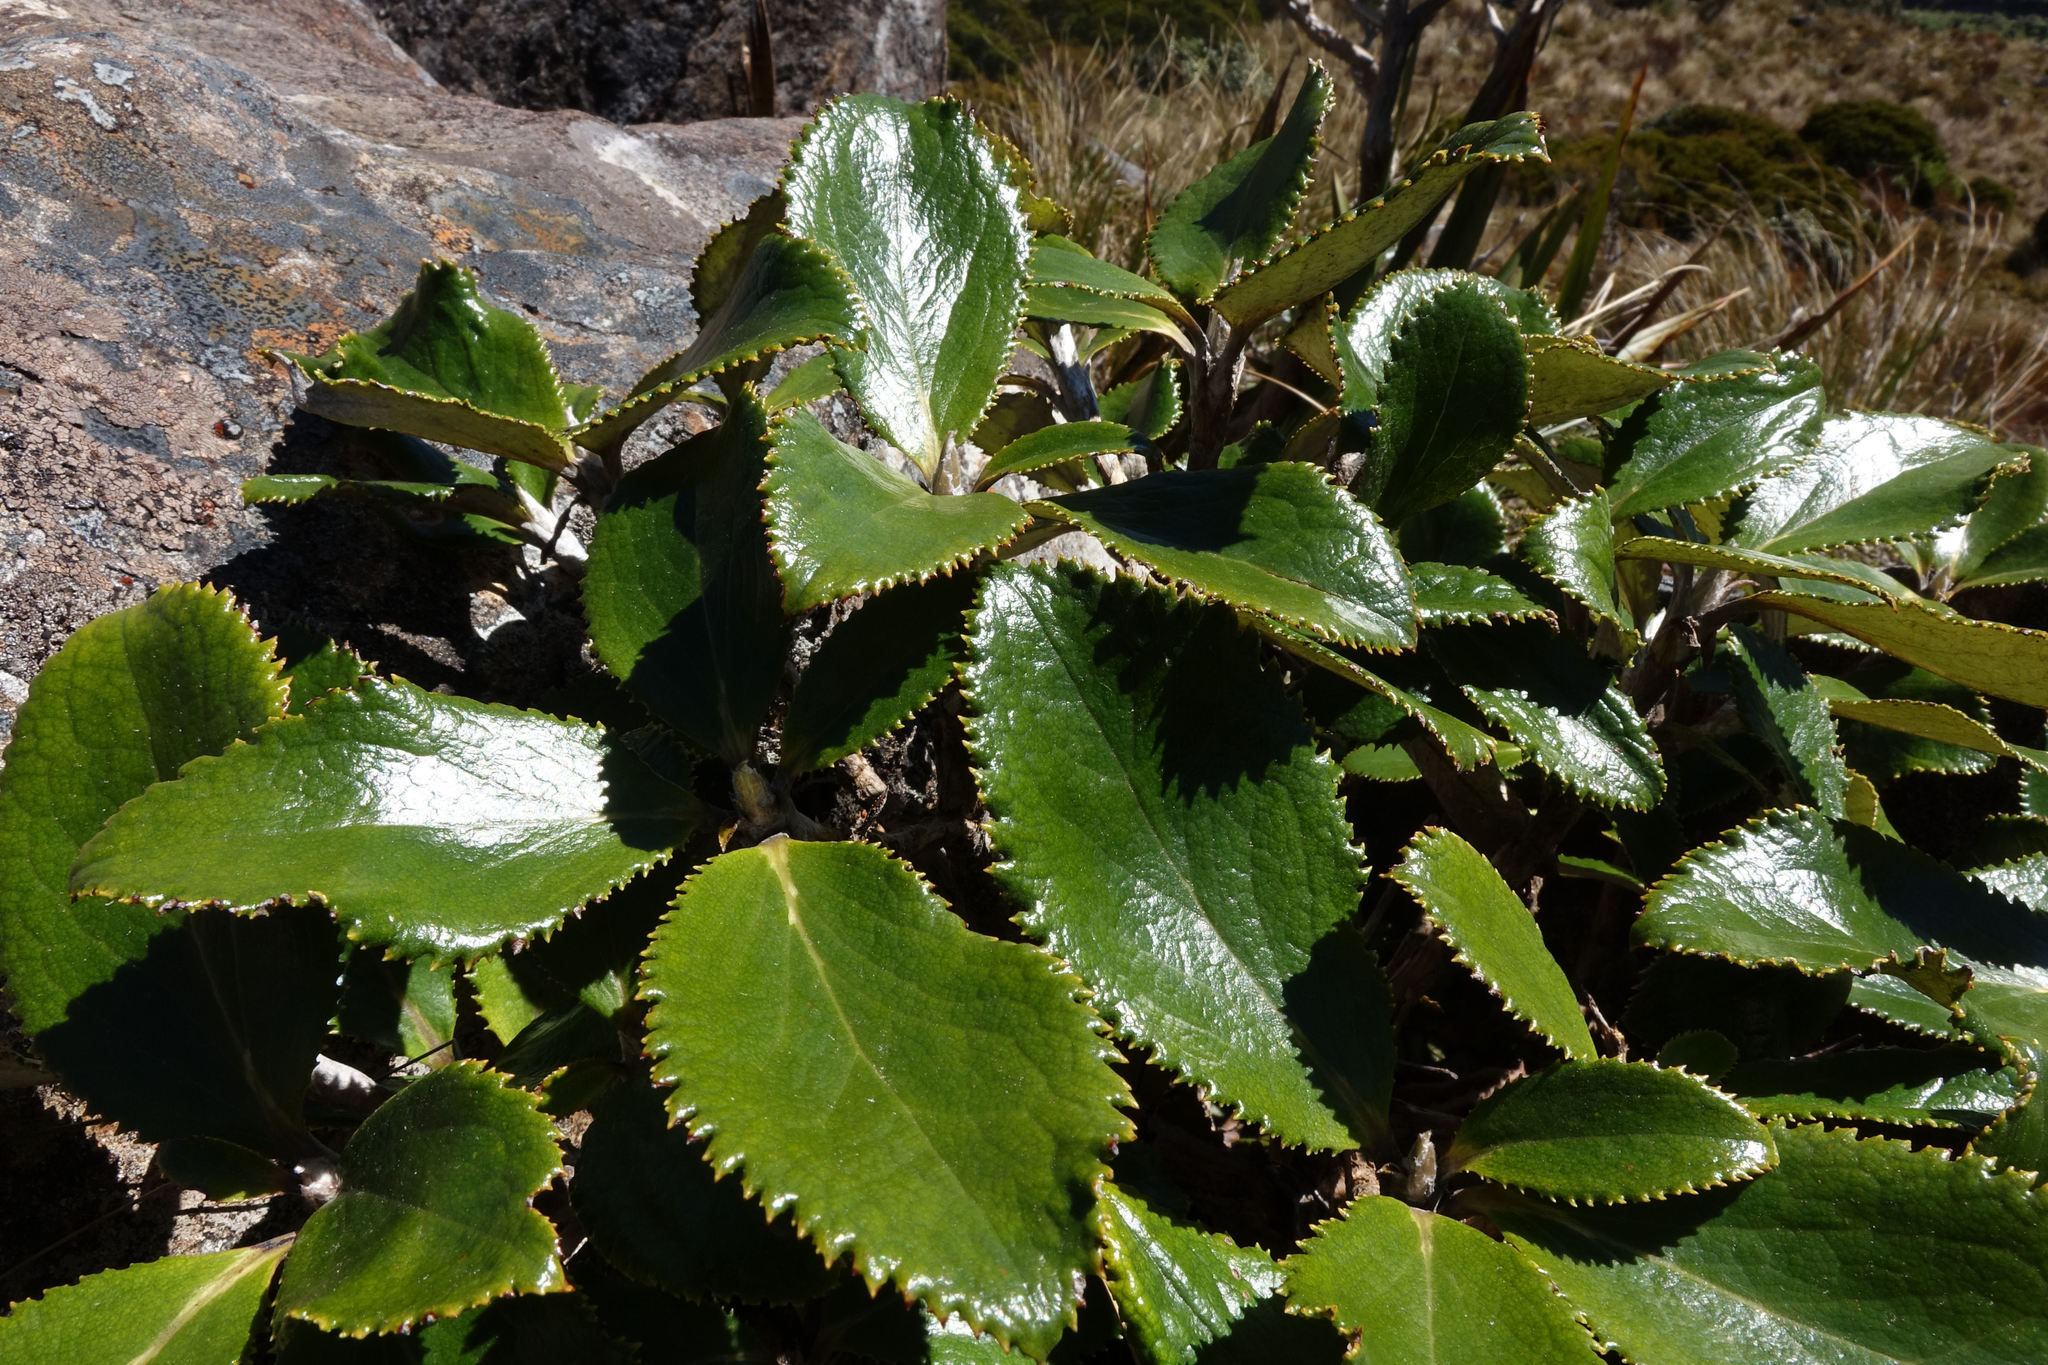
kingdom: Plantae
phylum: Tracheophyta
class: Magnoliopsida
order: Asterales
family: Asteraceae
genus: Macrolearia
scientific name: Macrolearia colensoi
